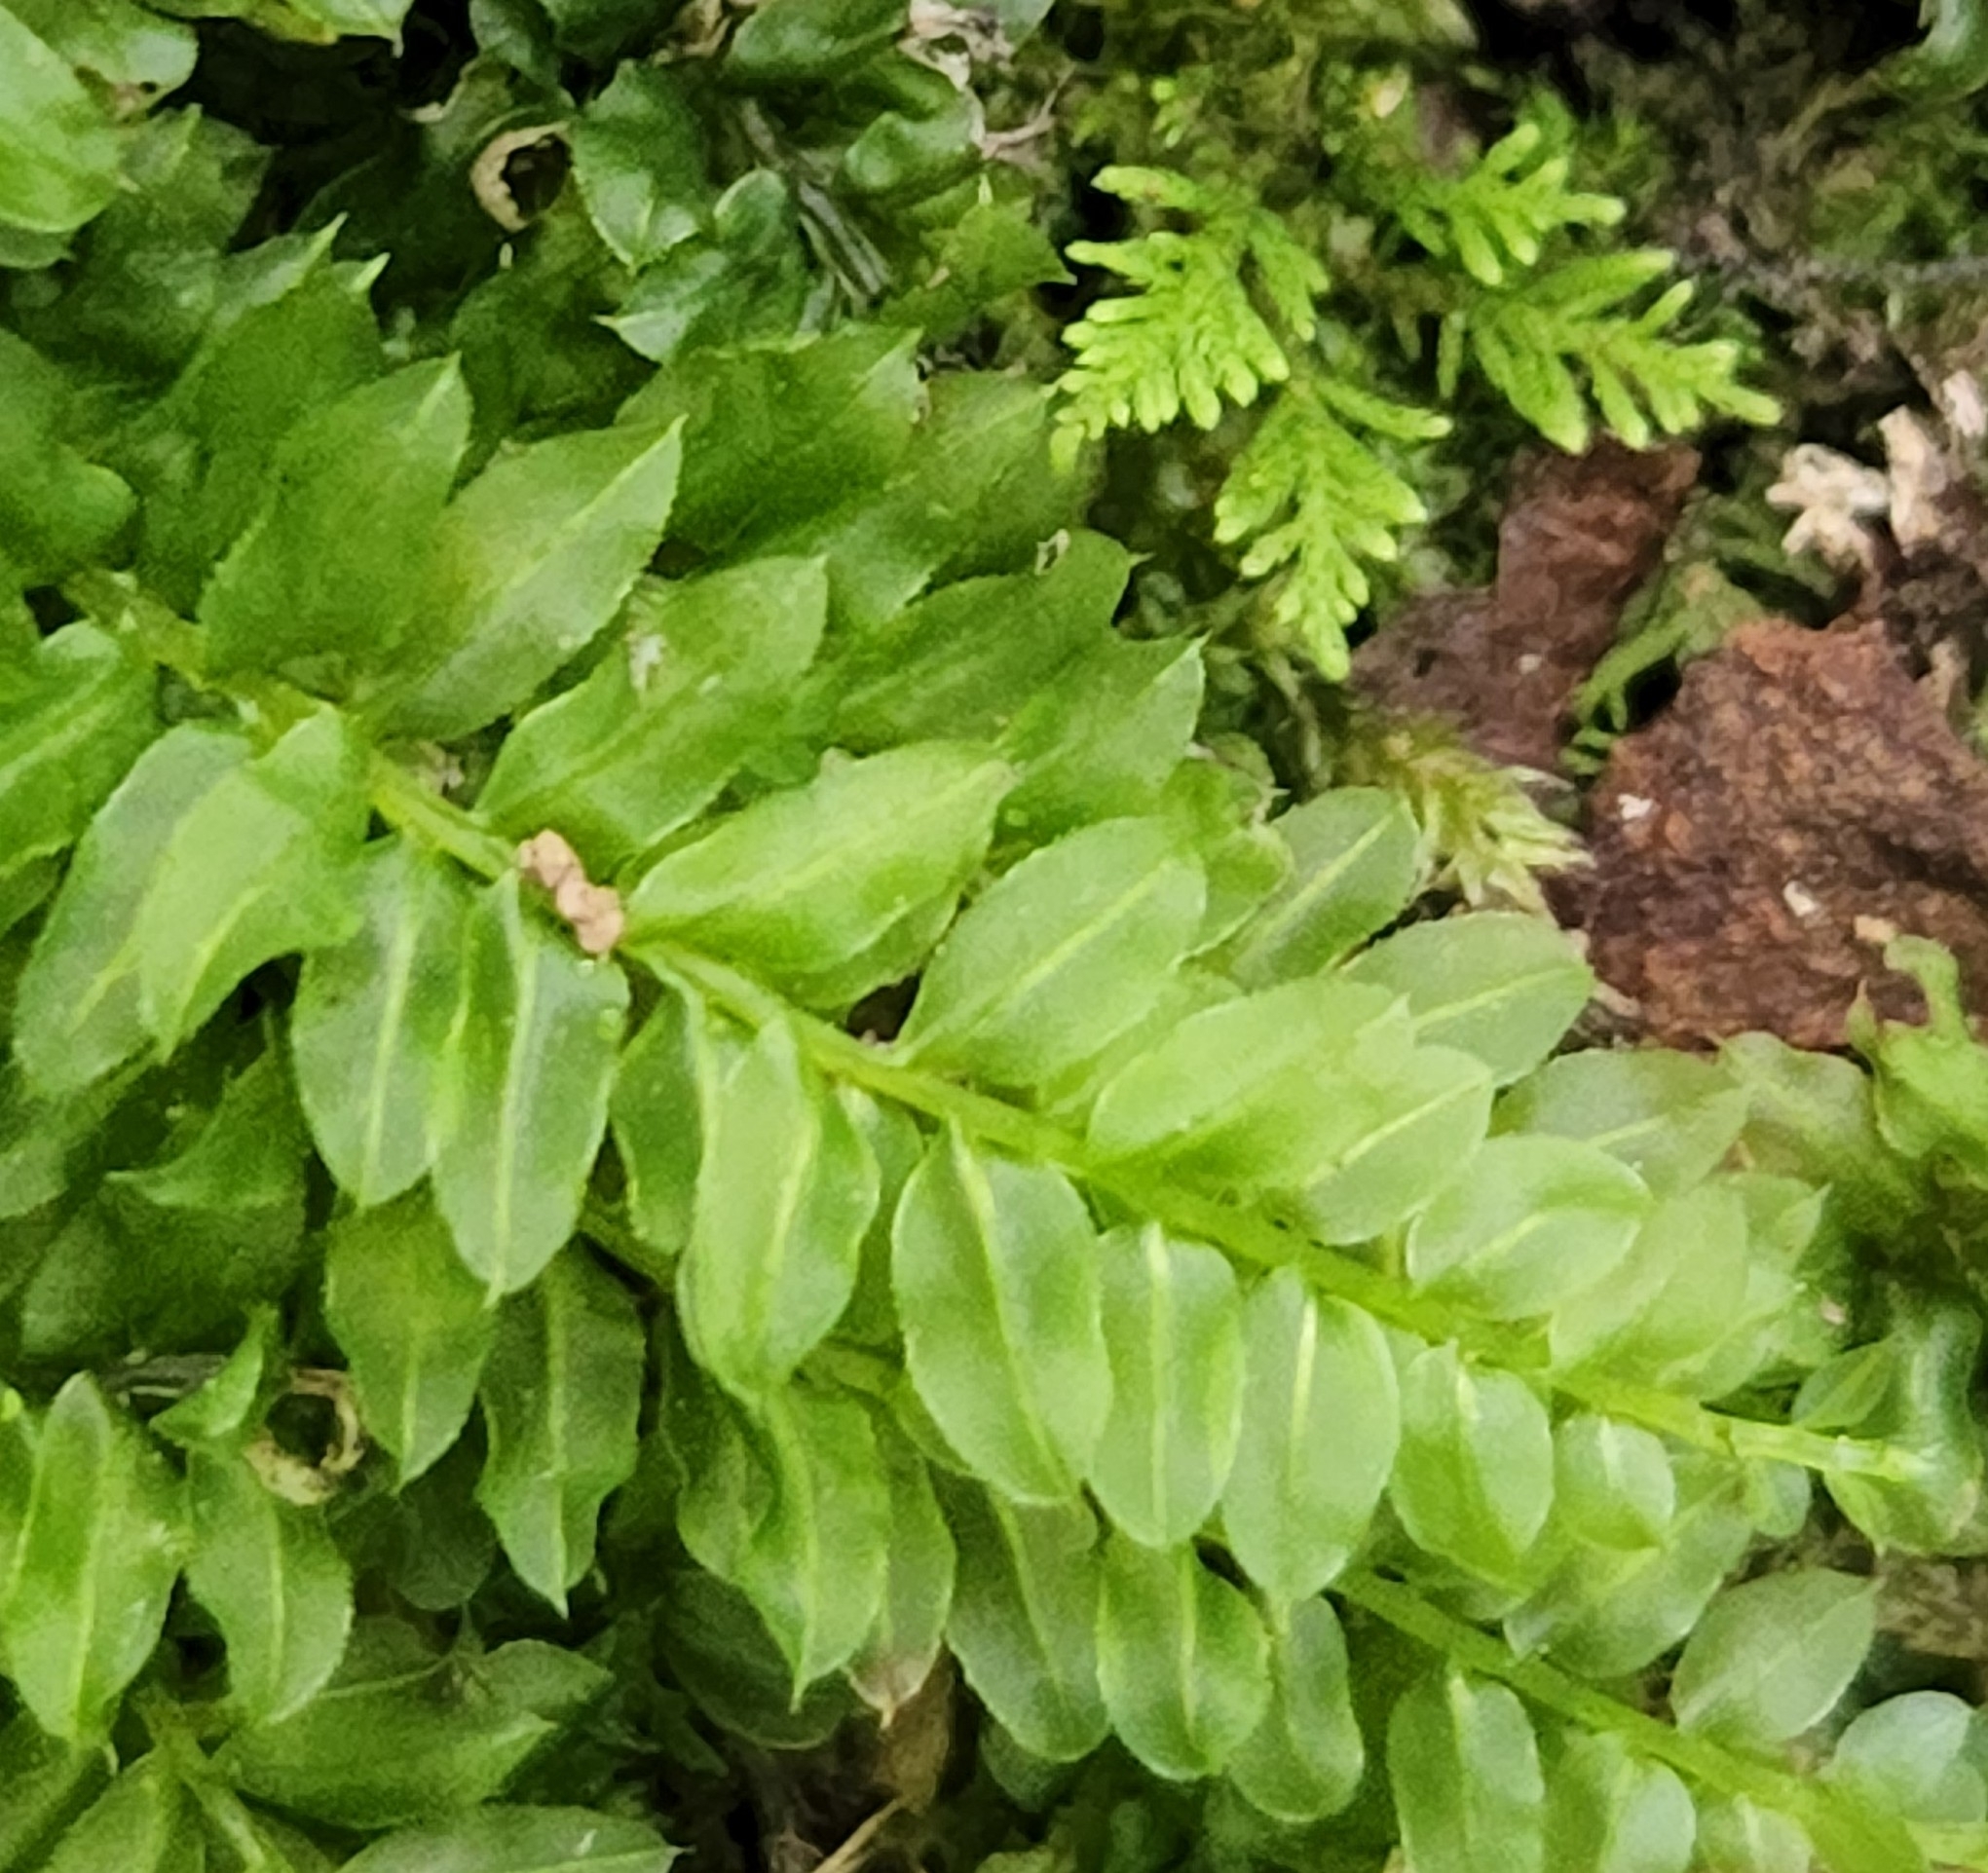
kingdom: Plantae
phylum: Bryophyta
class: Bryopsida
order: Bryales
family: Mniaceae
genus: Plagiomnium
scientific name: Plagiomnium ciliare
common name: Toothed leafy moss
